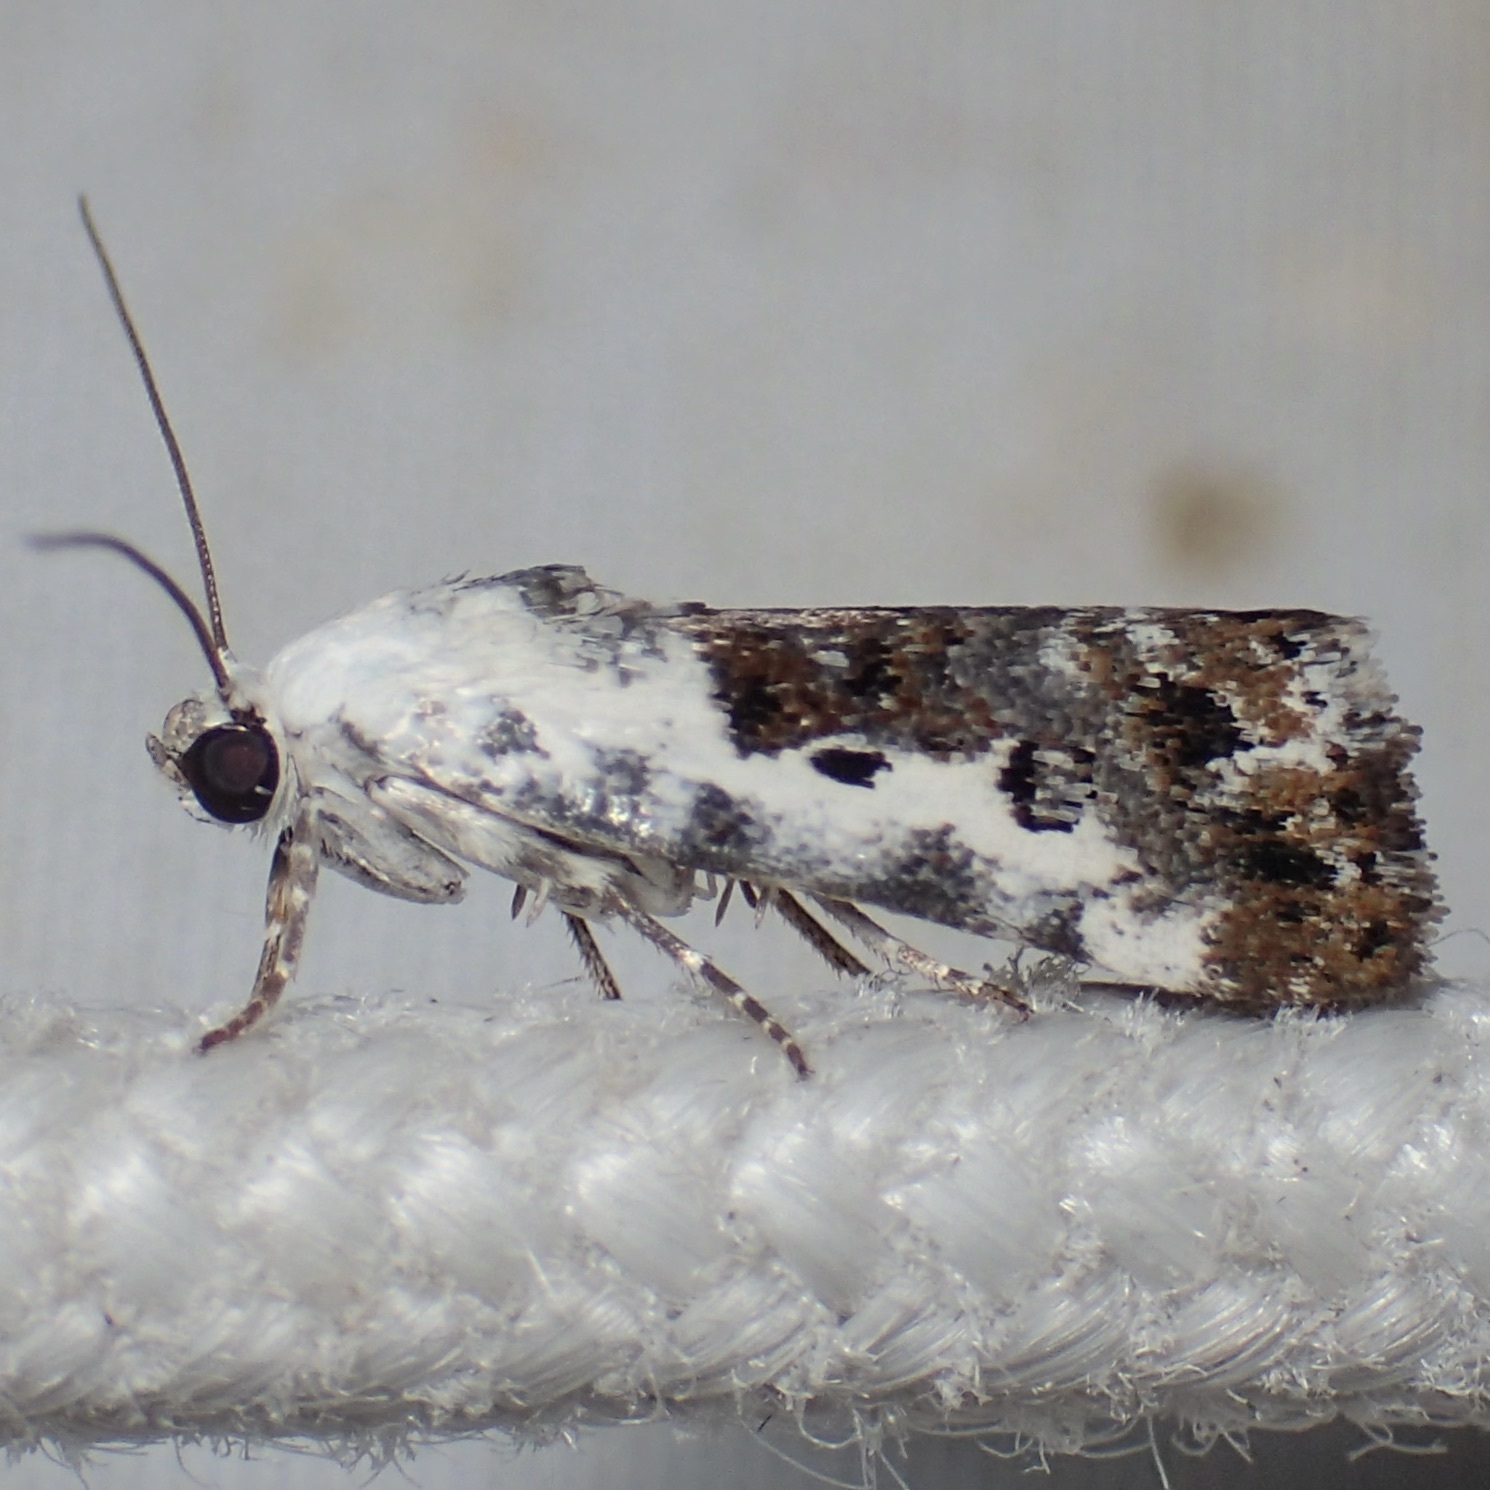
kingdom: Animalia
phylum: Arthropoda
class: Insecta
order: Lepidoptera
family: Noctuidae
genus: Acontia
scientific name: Acontia phecolisca
